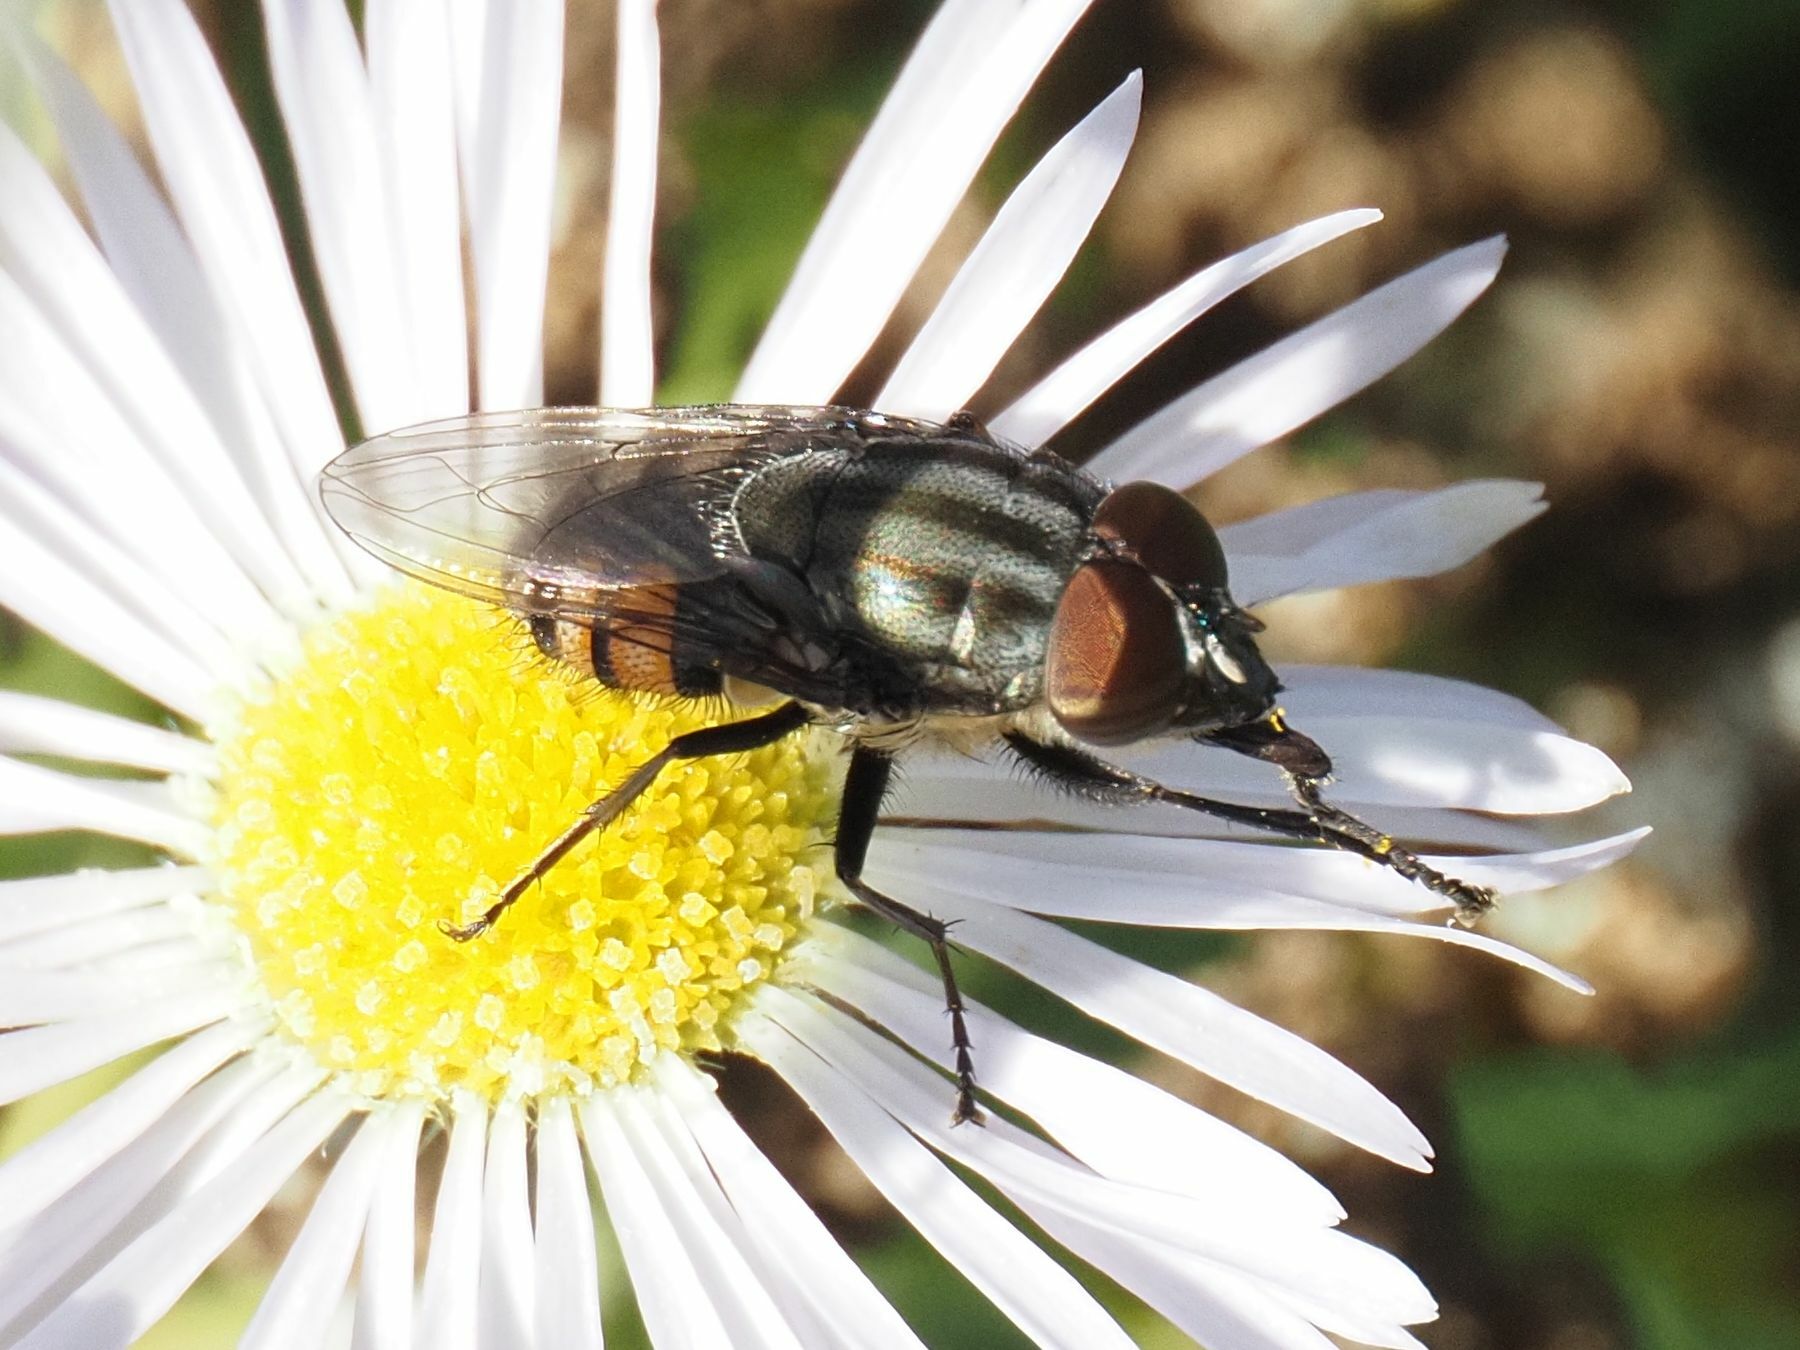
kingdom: Animalia
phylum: Arthropoda
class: Insecta
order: Diptera
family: Calliphoridae
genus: Stomorhina
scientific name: Stomorhina lunata
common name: Locust blowfly
